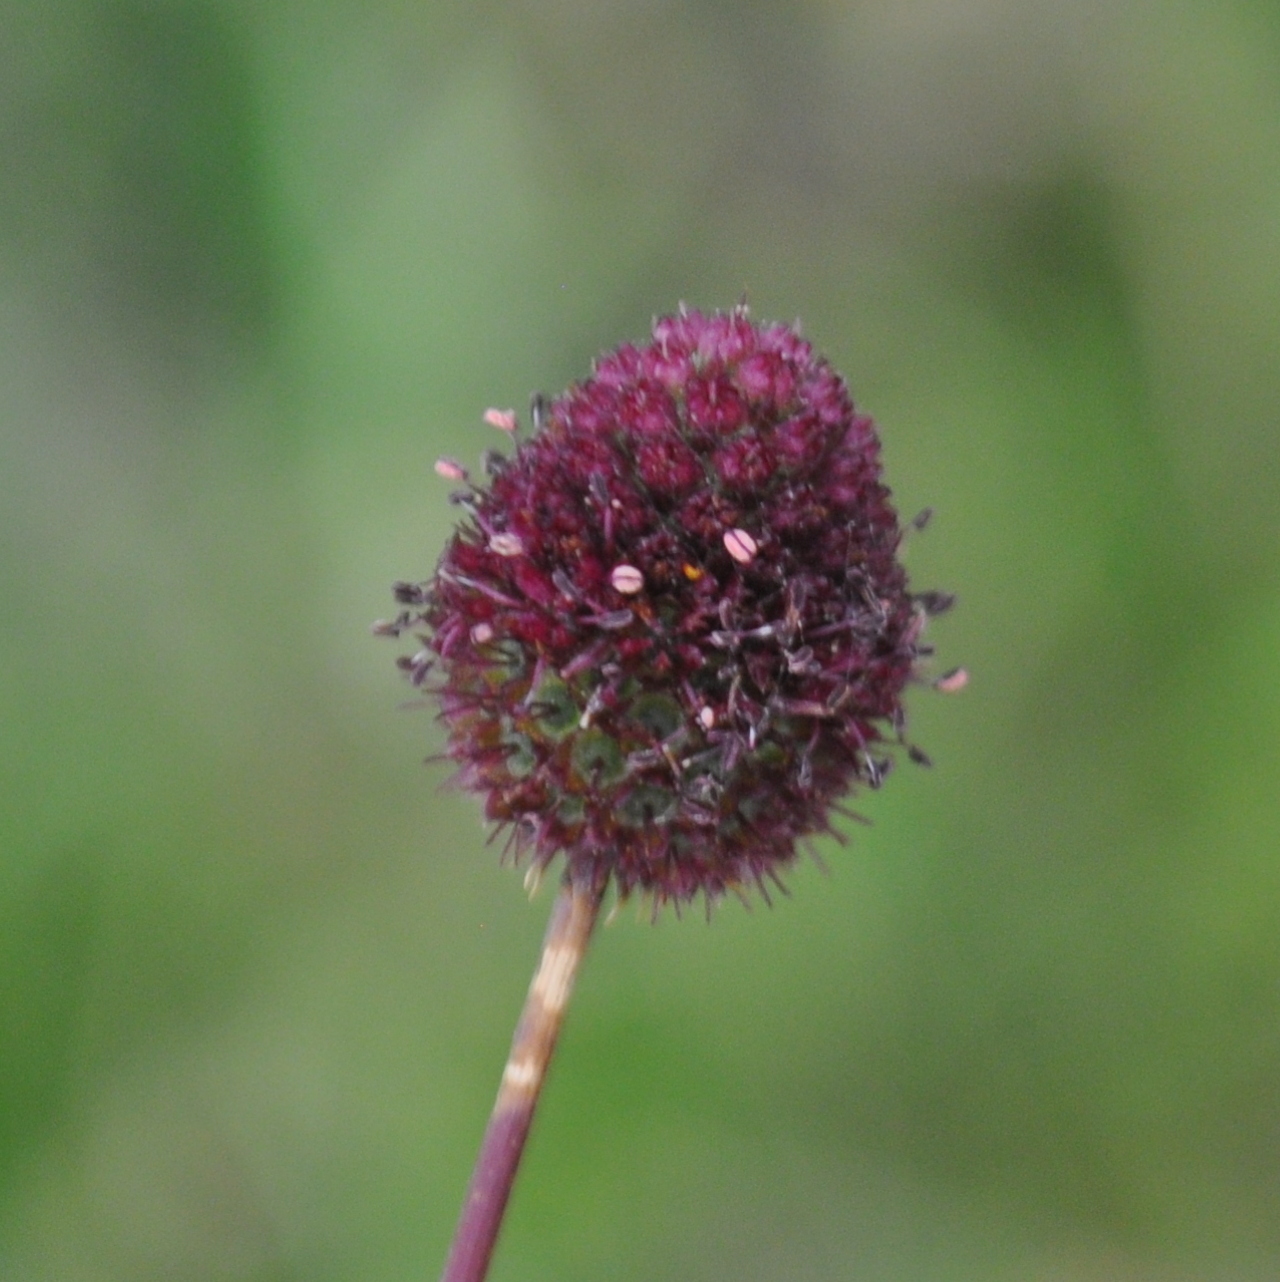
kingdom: Plantae
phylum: Tracheophyta
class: Magnoliopsida
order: Apiales
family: Apiaceae
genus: Eryngium
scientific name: Eryngium sanguisorba
